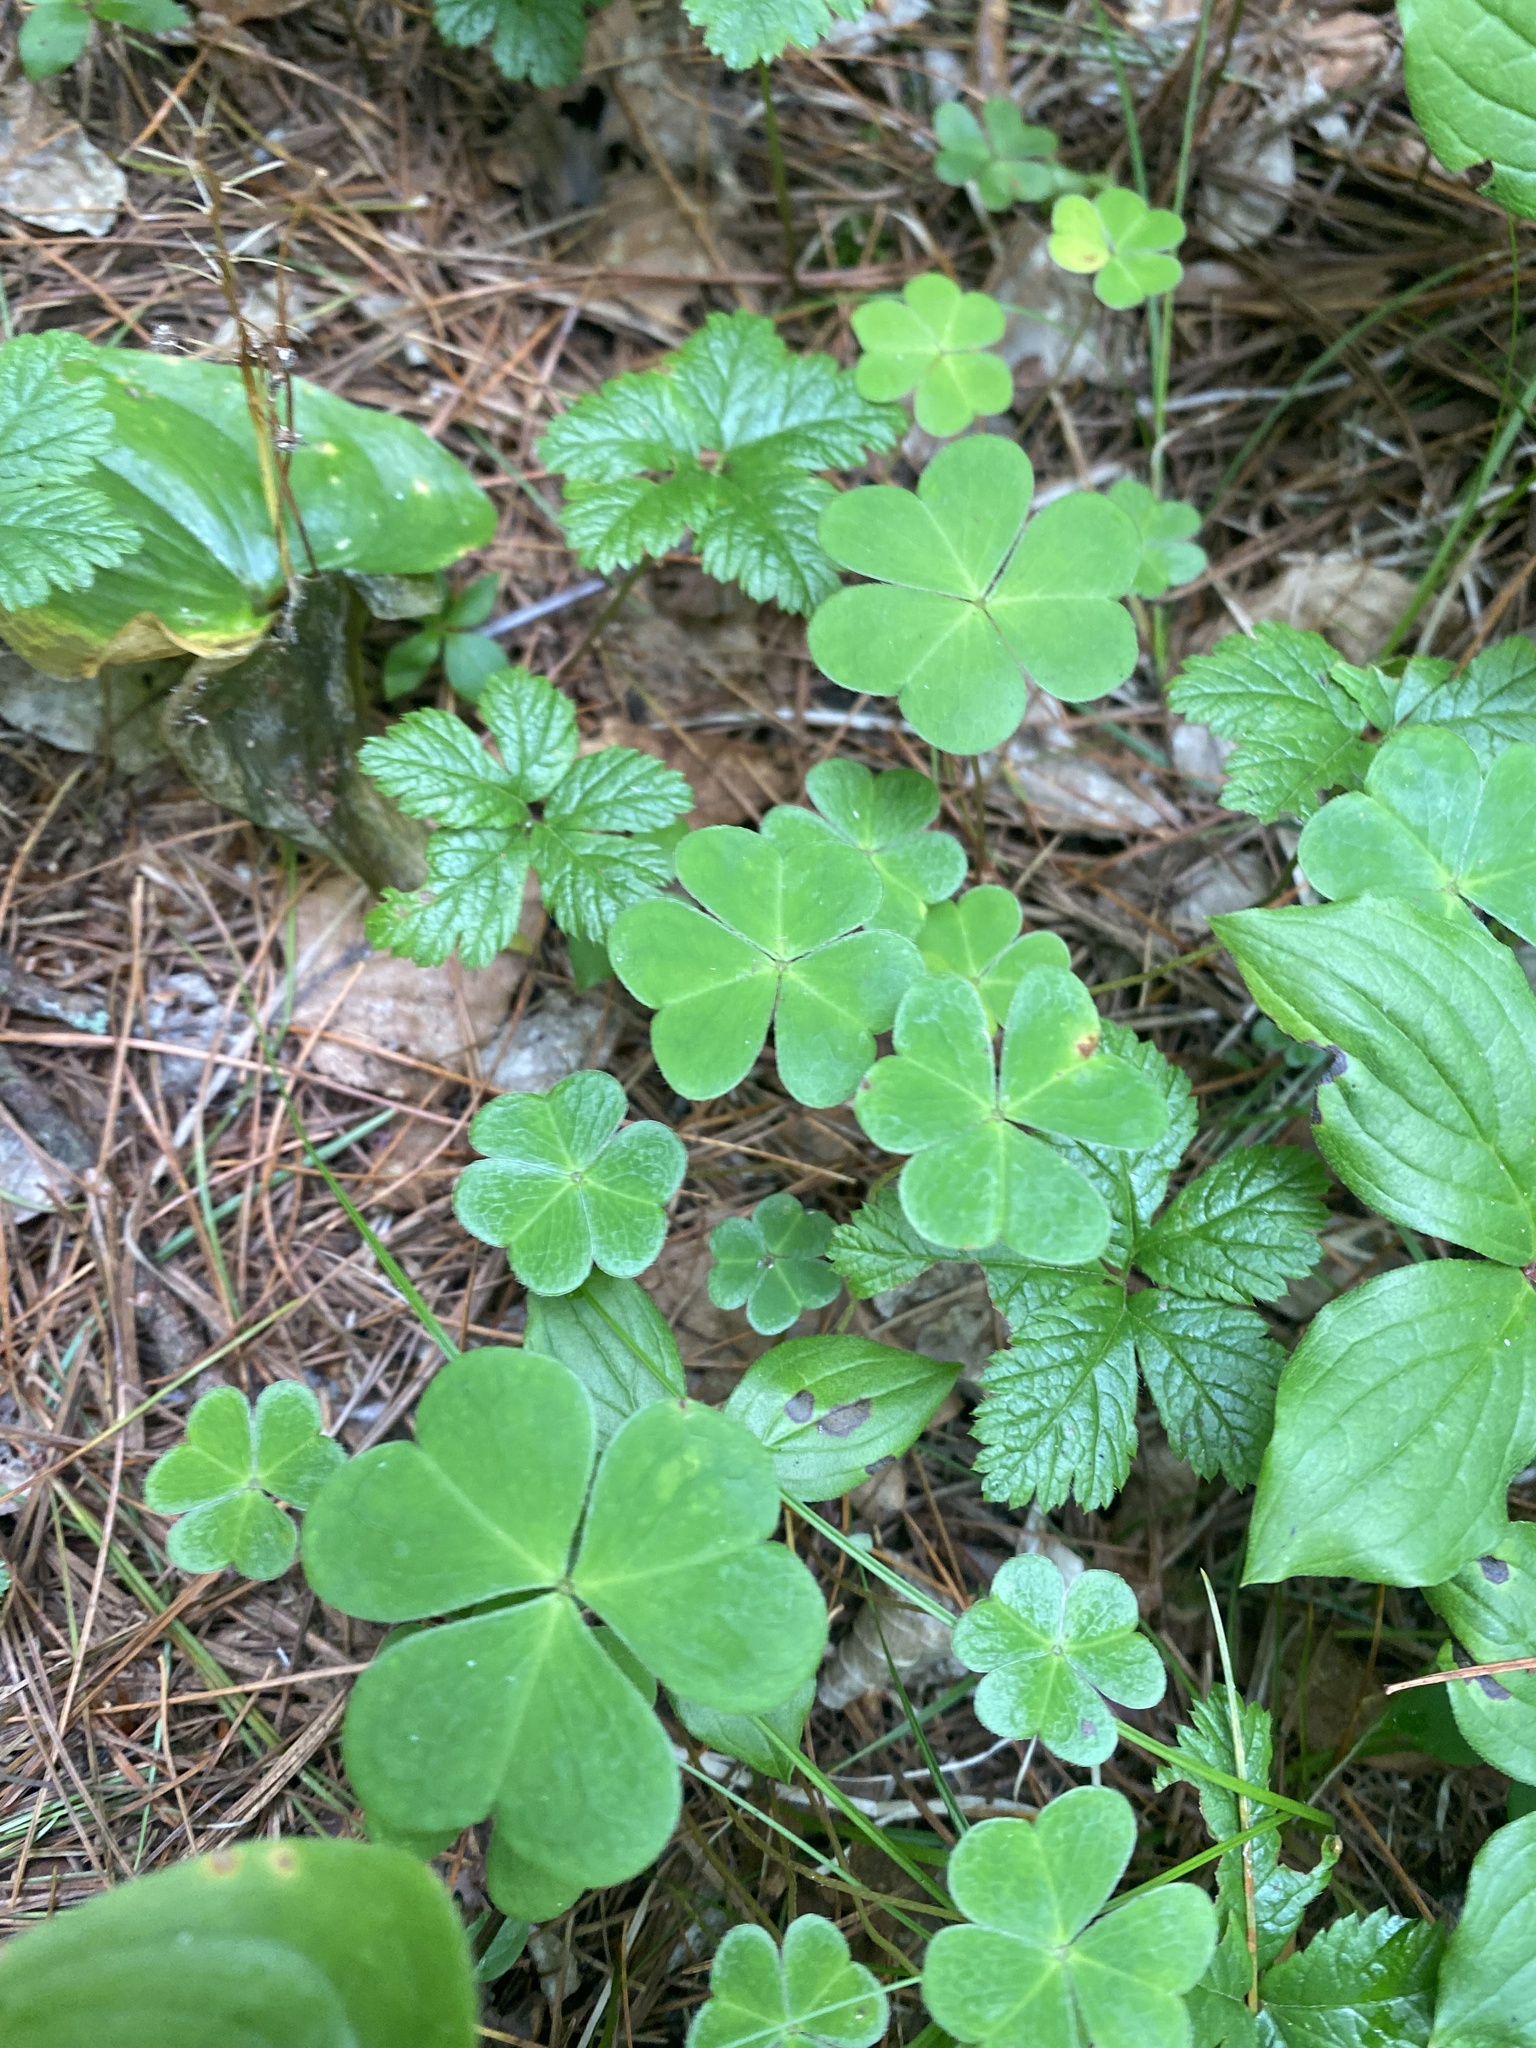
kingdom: Plantae
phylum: Tracheophyta
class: Magnoliopsida
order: Oxalidales
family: Oxalidaceae
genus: Oxalis
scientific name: Oxalis acetosella
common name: Wood-sorrel
